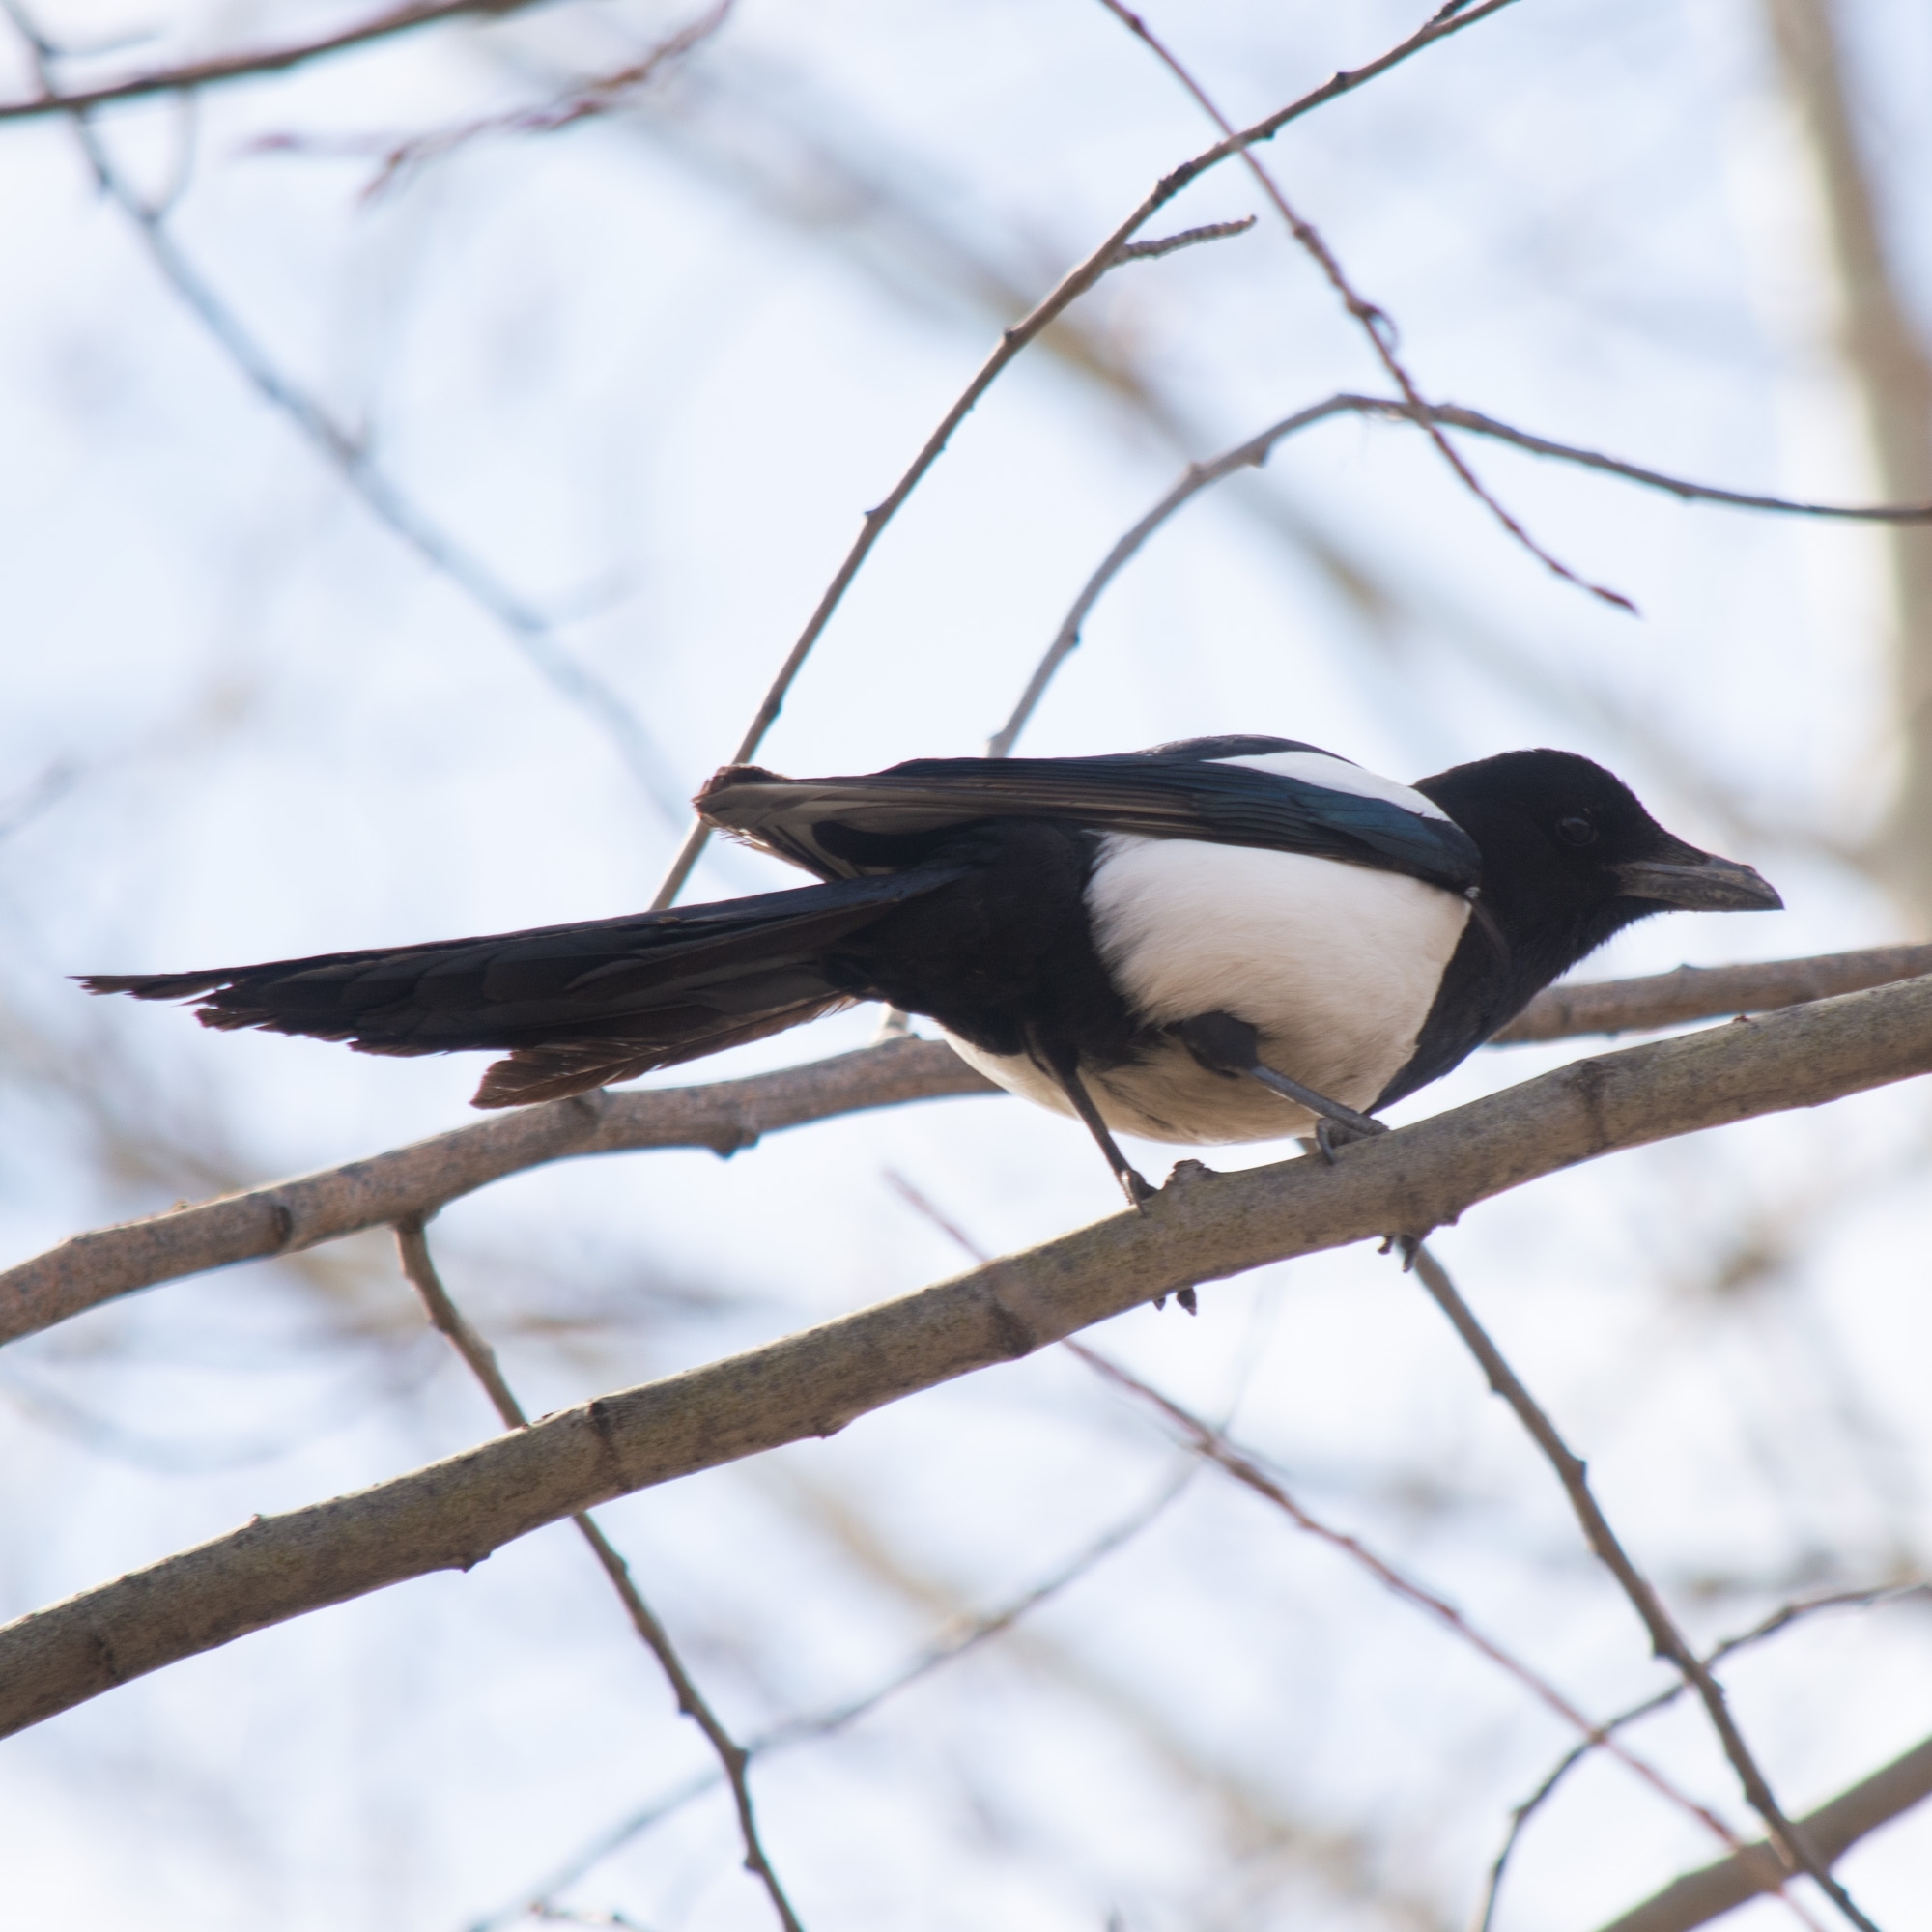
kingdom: Animalia
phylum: Chordata
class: Aves
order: Passeriformes
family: Corvidae
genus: Pica
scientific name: Pica pica
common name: Eurasian magpie
